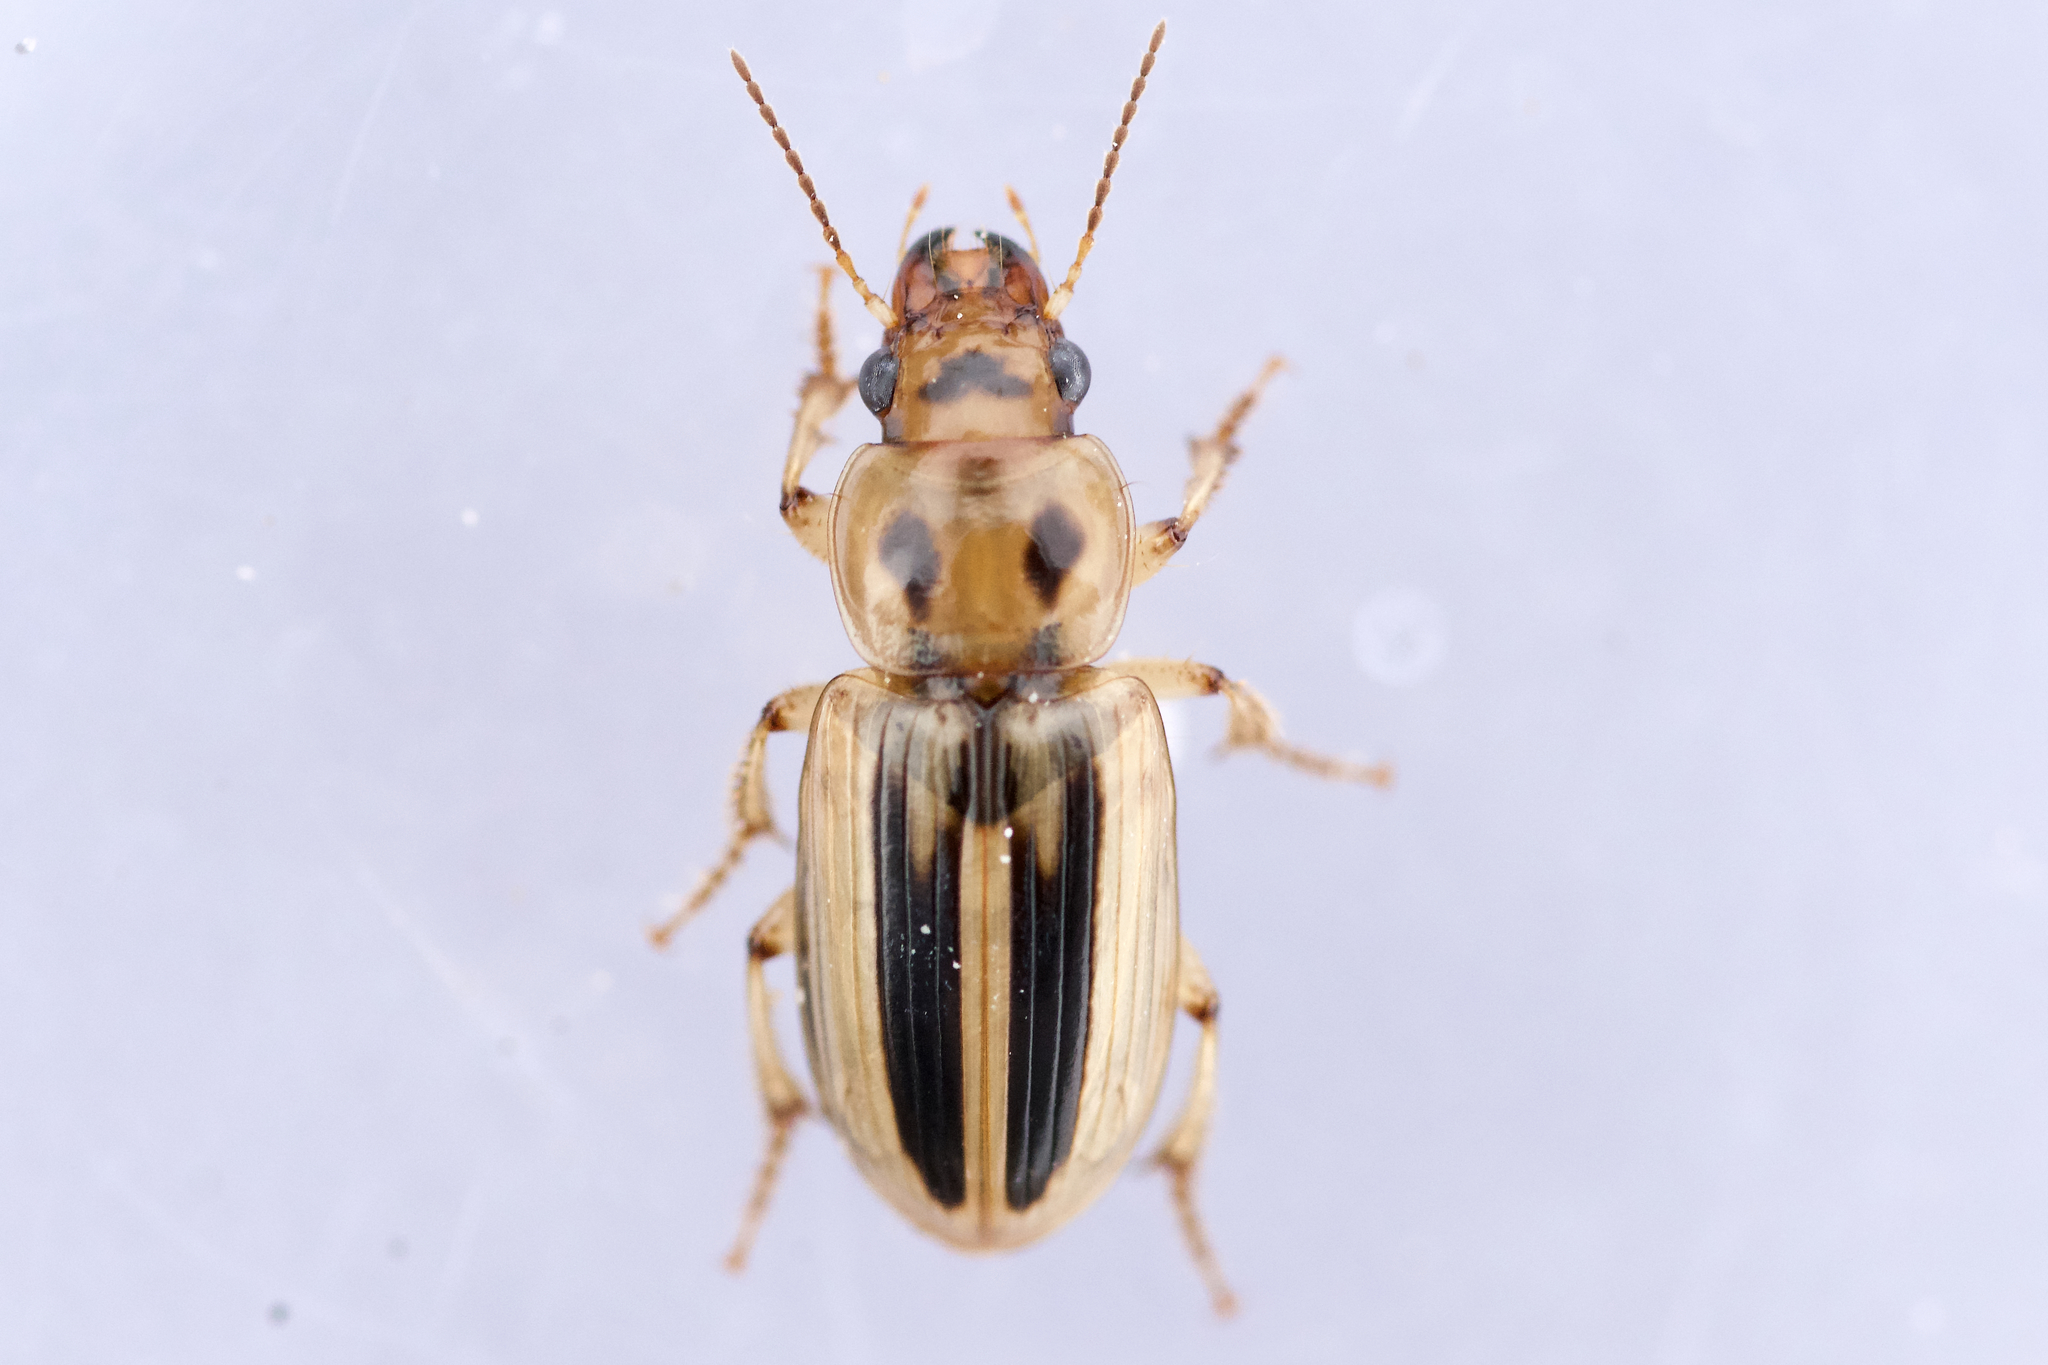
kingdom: Animalia
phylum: Arthropoda
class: Insecta
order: Coleoptera
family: Carabidae
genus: Stenolophus
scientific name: Stenolophus lineola
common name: Lined stenolophus
